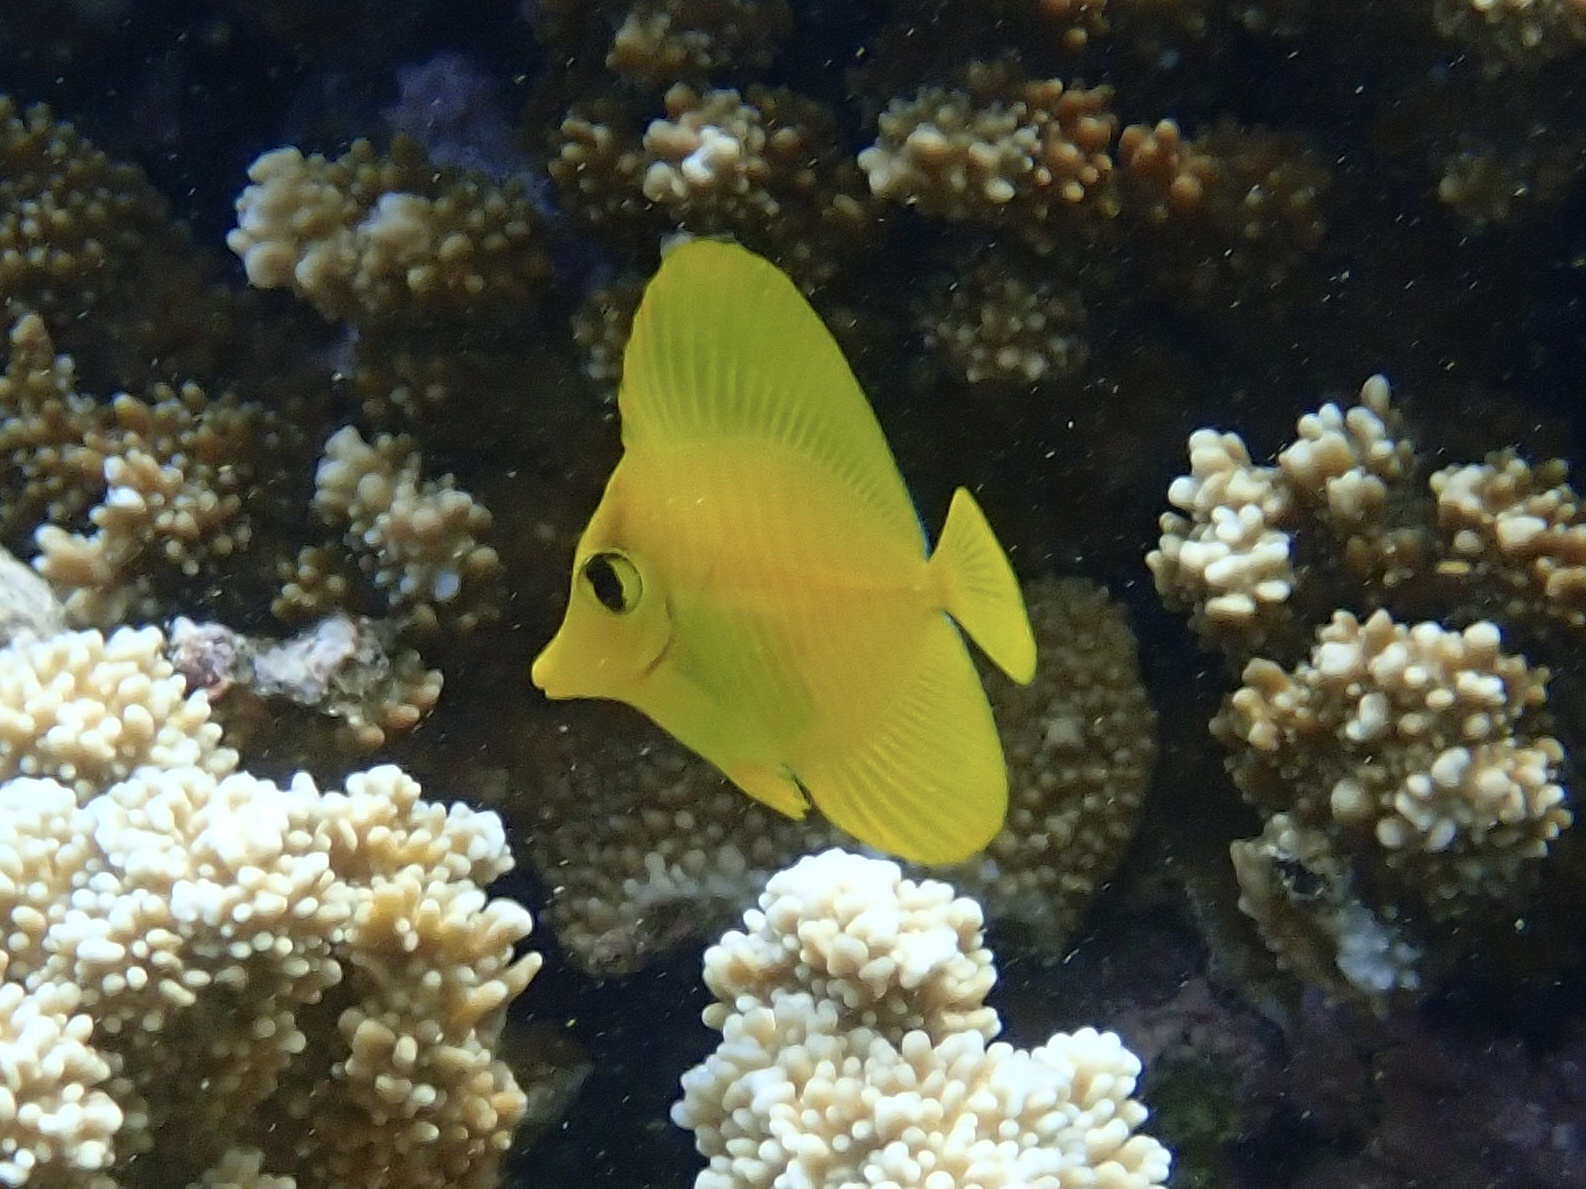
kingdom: Animalia
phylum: Chordata
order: Perciformes
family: Acanthuridae
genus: Zebrasoma
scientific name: Zebrasoma flavescens
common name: Yellow tang
